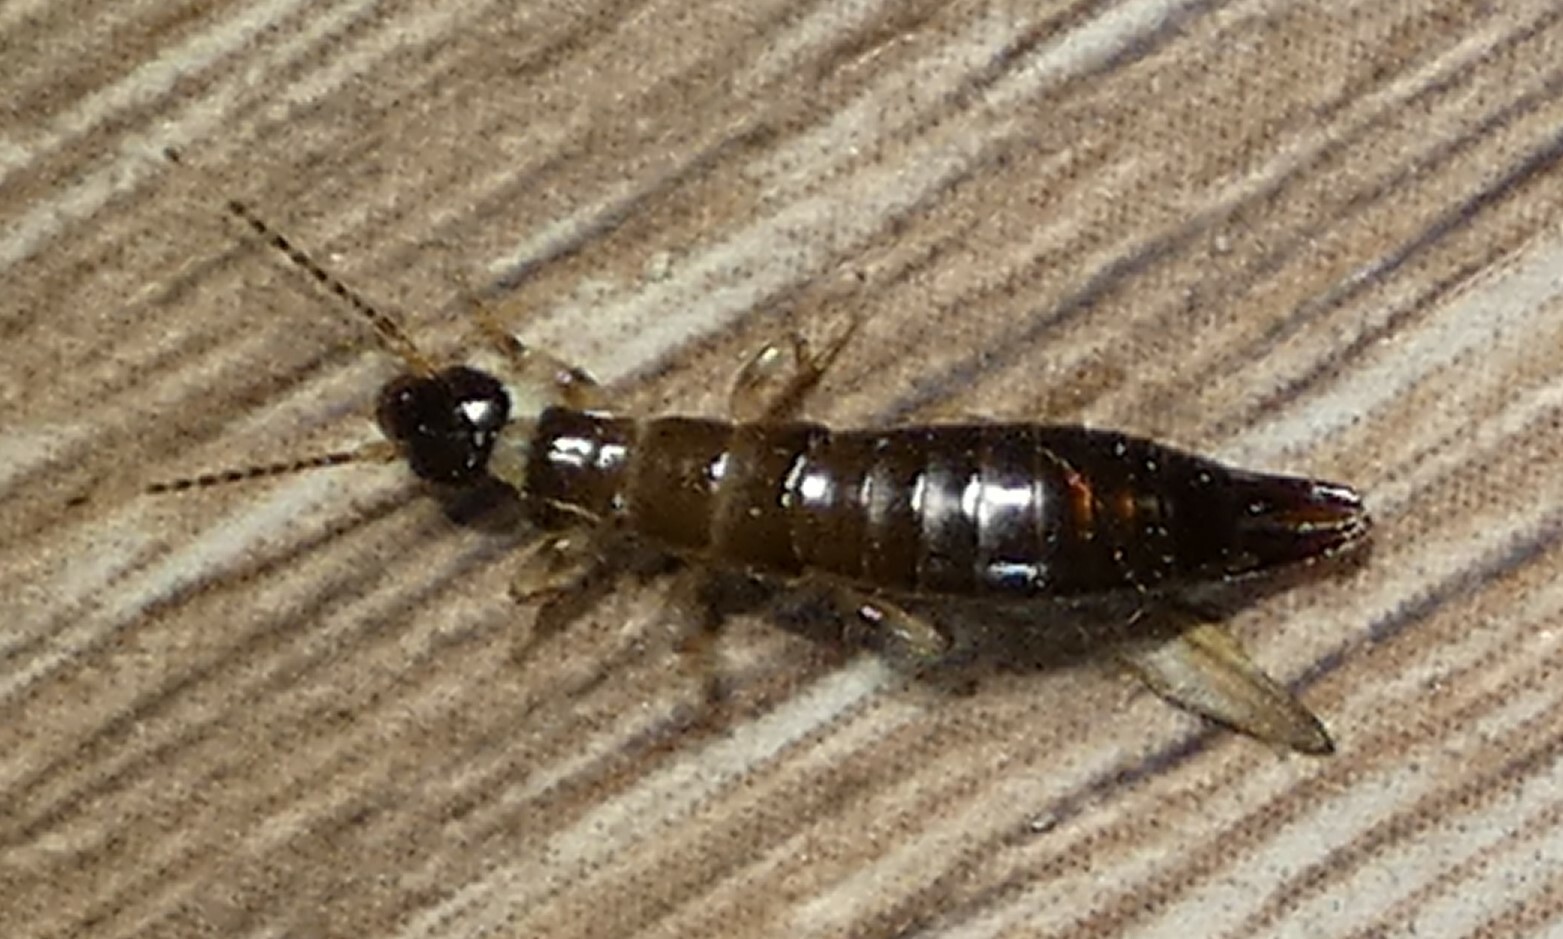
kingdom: Animalia
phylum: Arthropoda
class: Insecta
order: Dermaptera
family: Anisolabididae
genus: Euborellia
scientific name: Euborellia annulipes
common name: Ringlegged earwig
